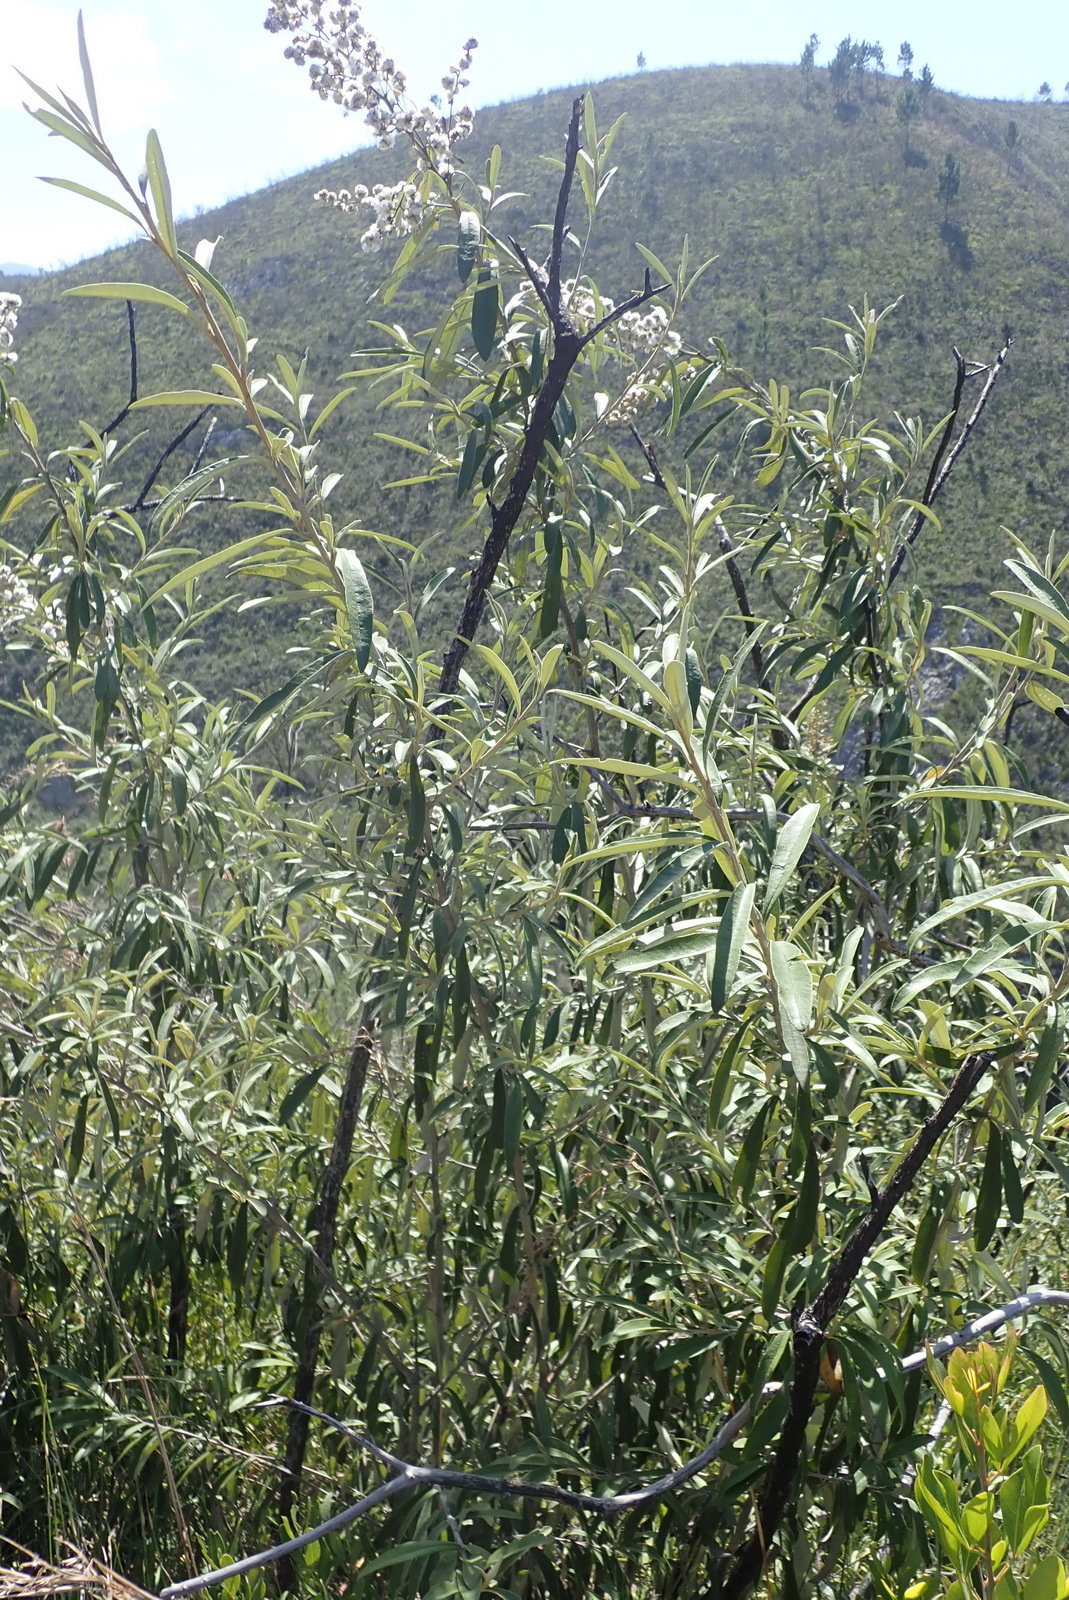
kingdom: Plantae
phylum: Tracheophyta
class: Magnoliopsida
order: Asterales
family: Asteraceae
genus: Tarchonanthus
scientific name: Tarchonanthus littoralis
